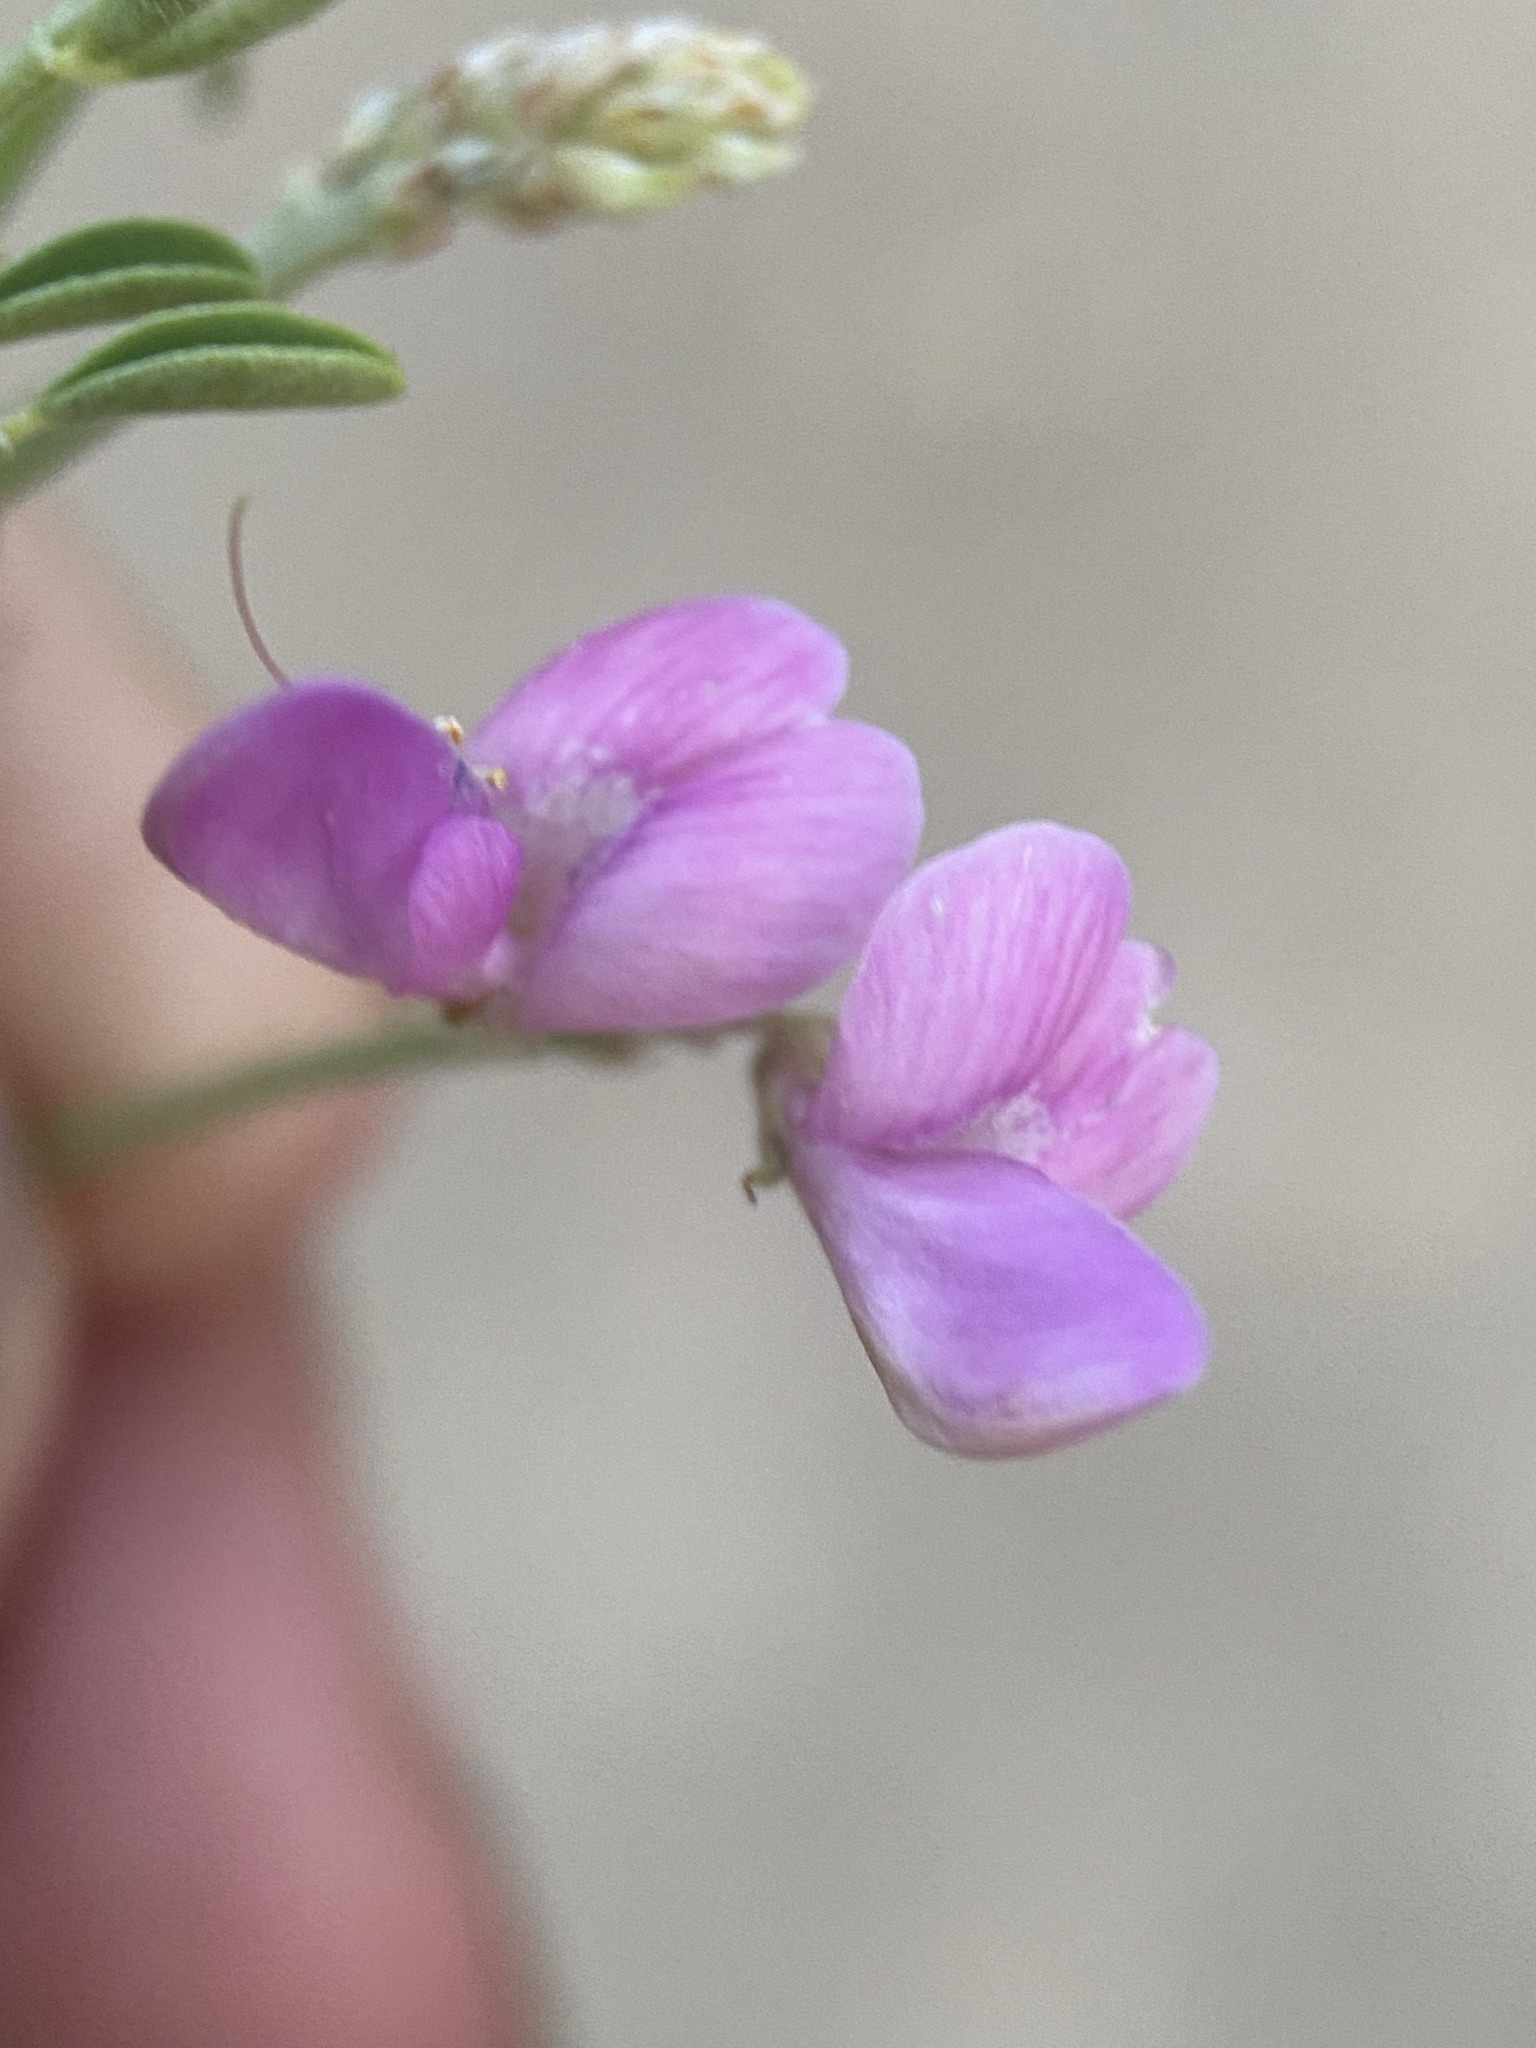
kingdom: Plantae
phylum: Tracheophyta
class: Magnoliopsida
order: Fabales
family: Fabaceae
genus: Hedysarum
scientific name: Hedysarum boreale
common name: Northern sweet-vetch
